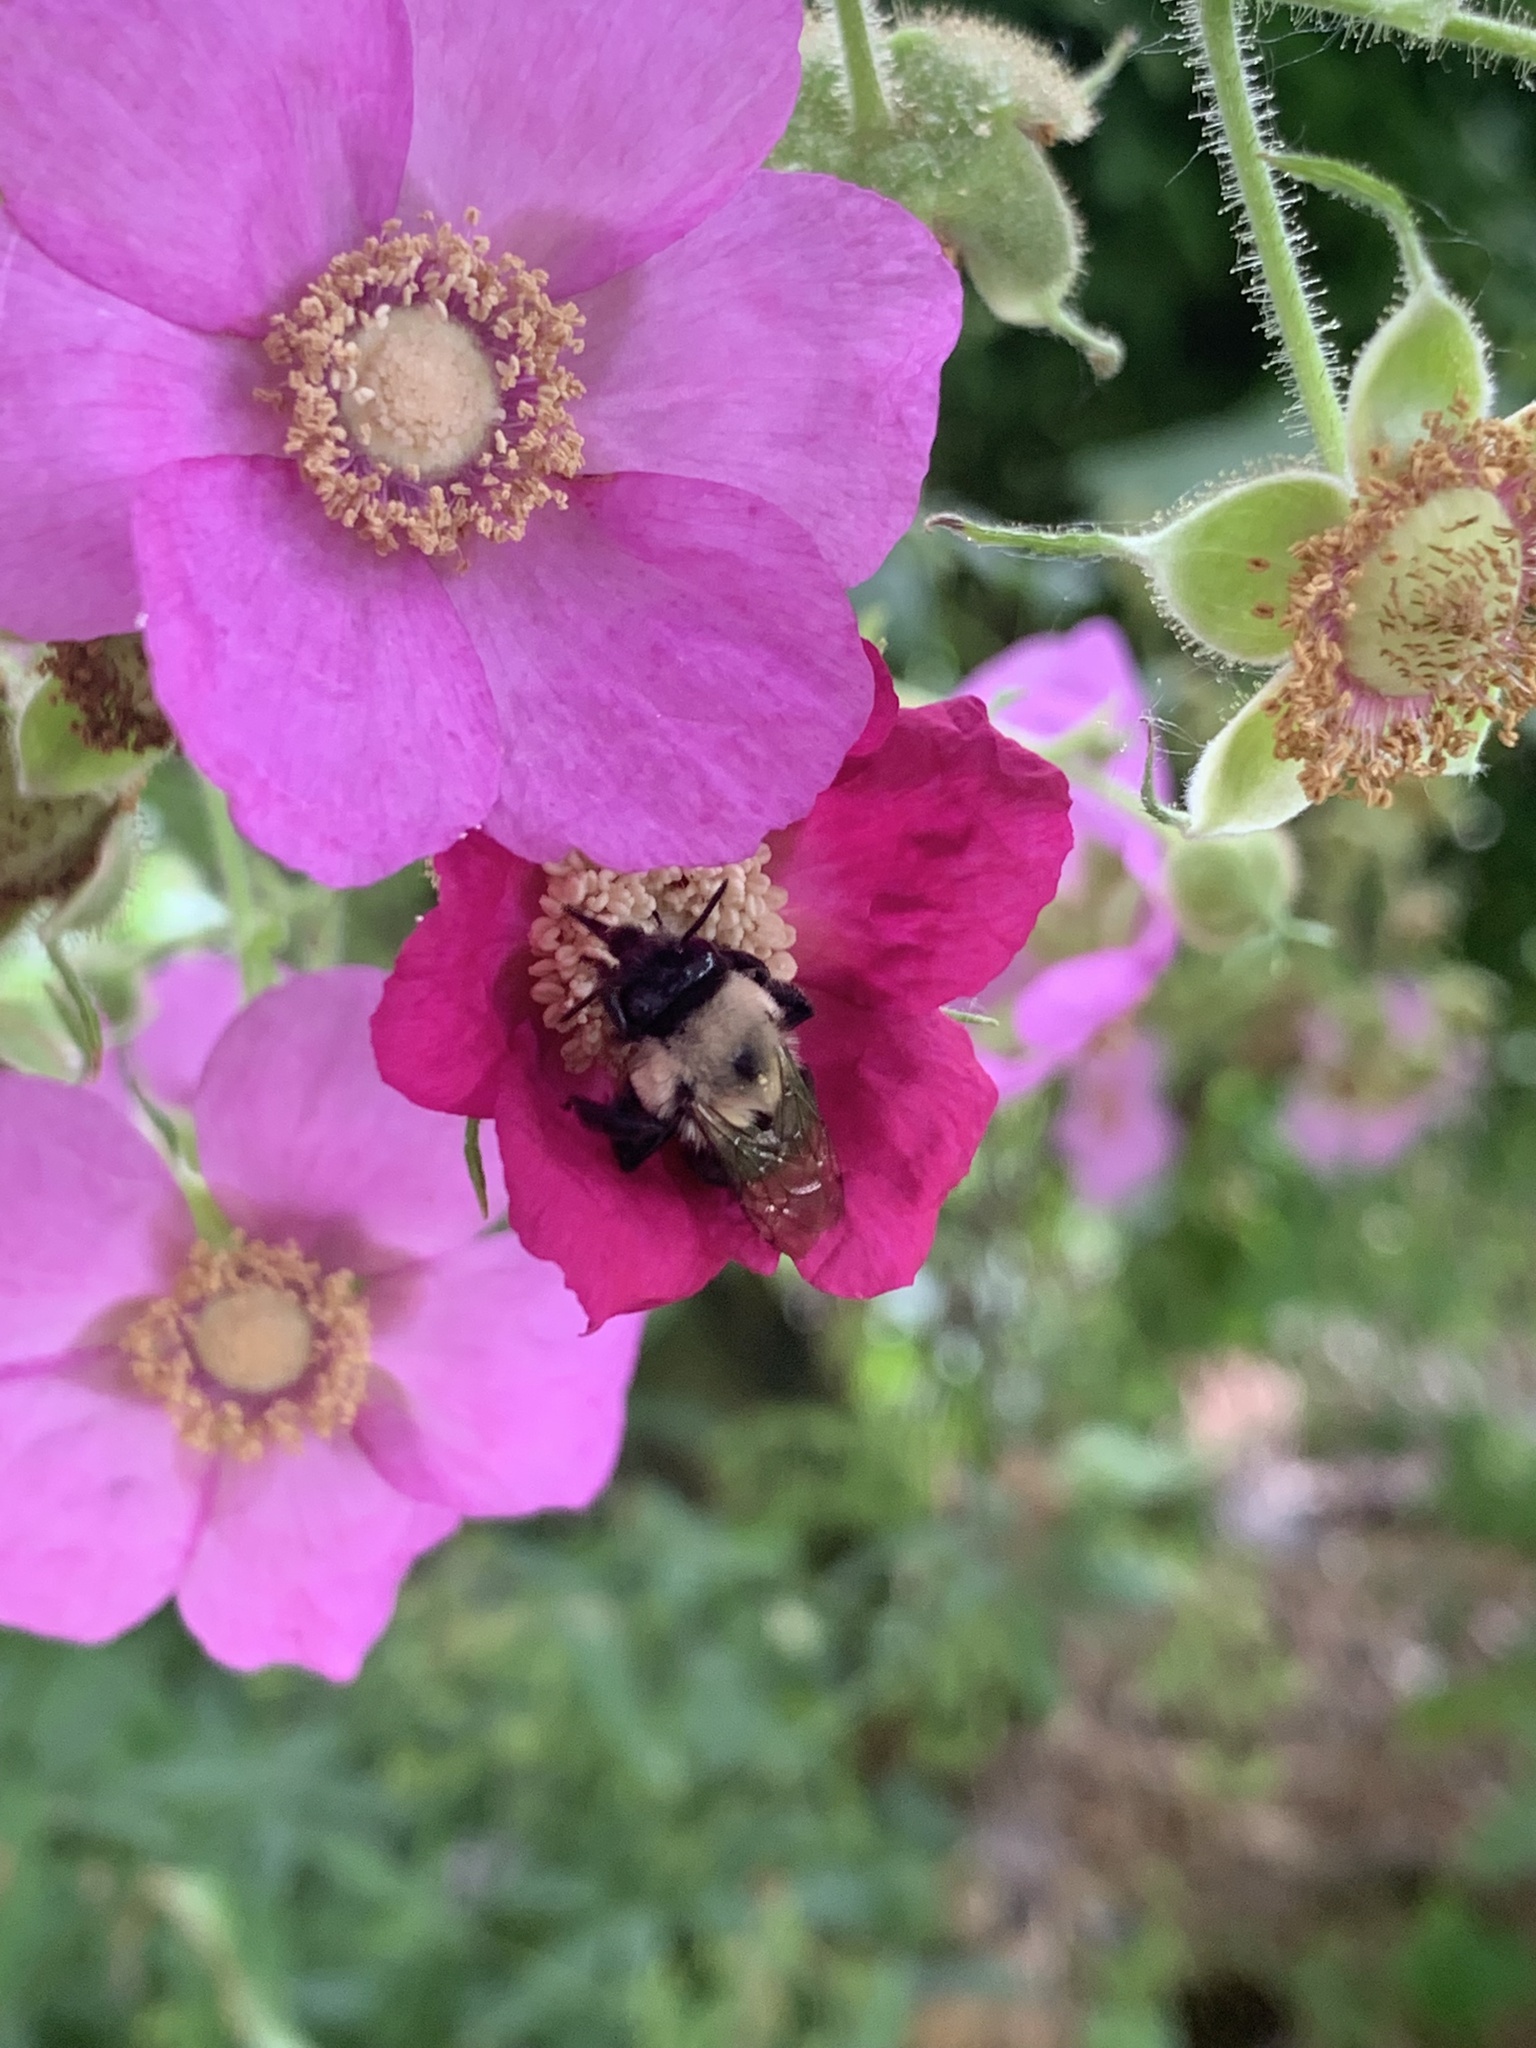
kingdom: Animalia
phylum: Arthropoda
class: Insecta
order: Hymenoptera
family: Apidae
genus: Anthophora
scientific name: Anthophora abrupta
